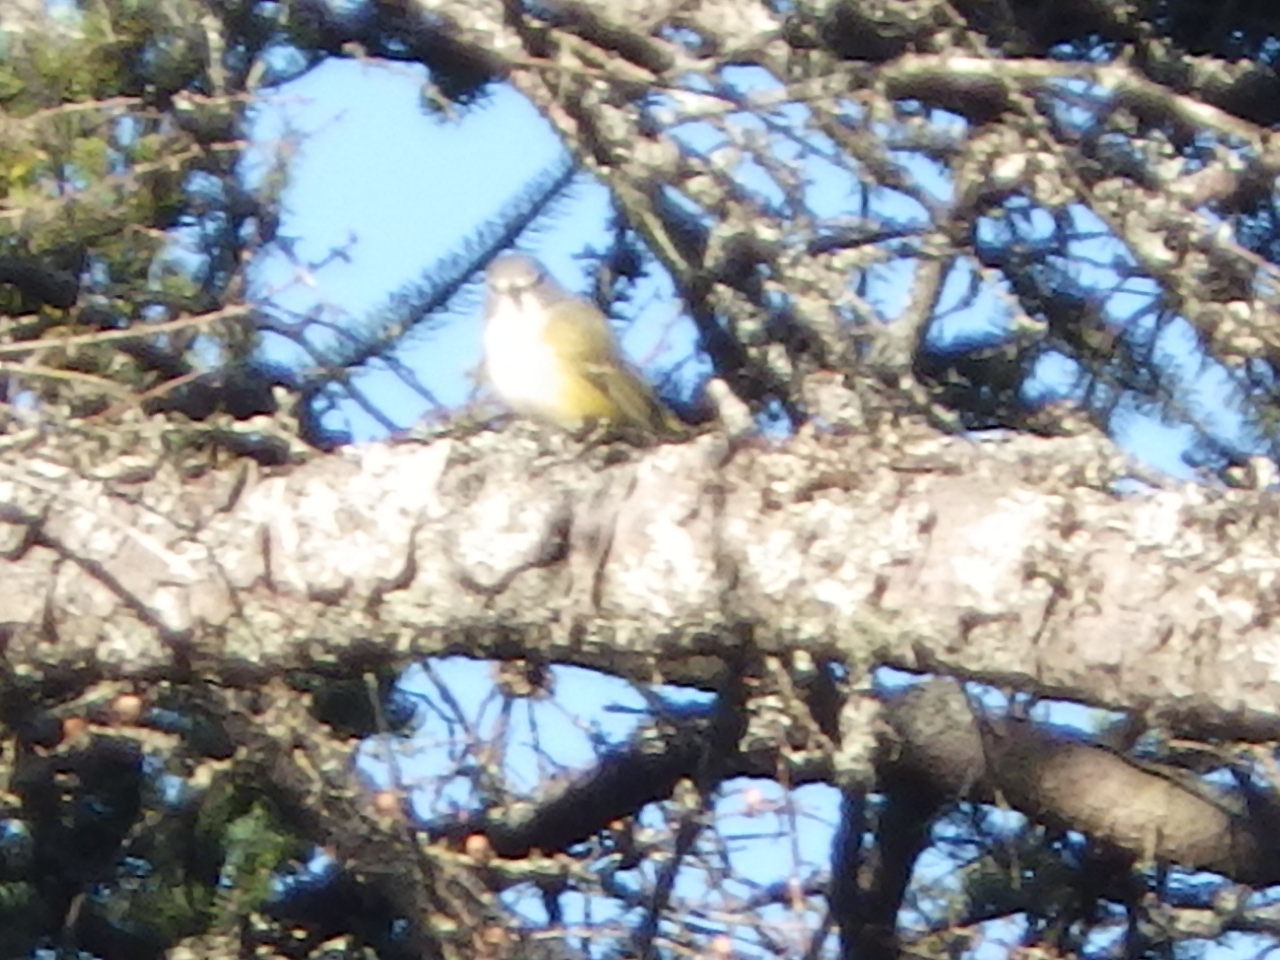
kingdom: Animalia
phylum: Chordata
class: Aves
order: Passeriformes
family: Vireonidae
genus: Vireo
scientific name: Vireo solitarius
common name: Blue-headed vireo
